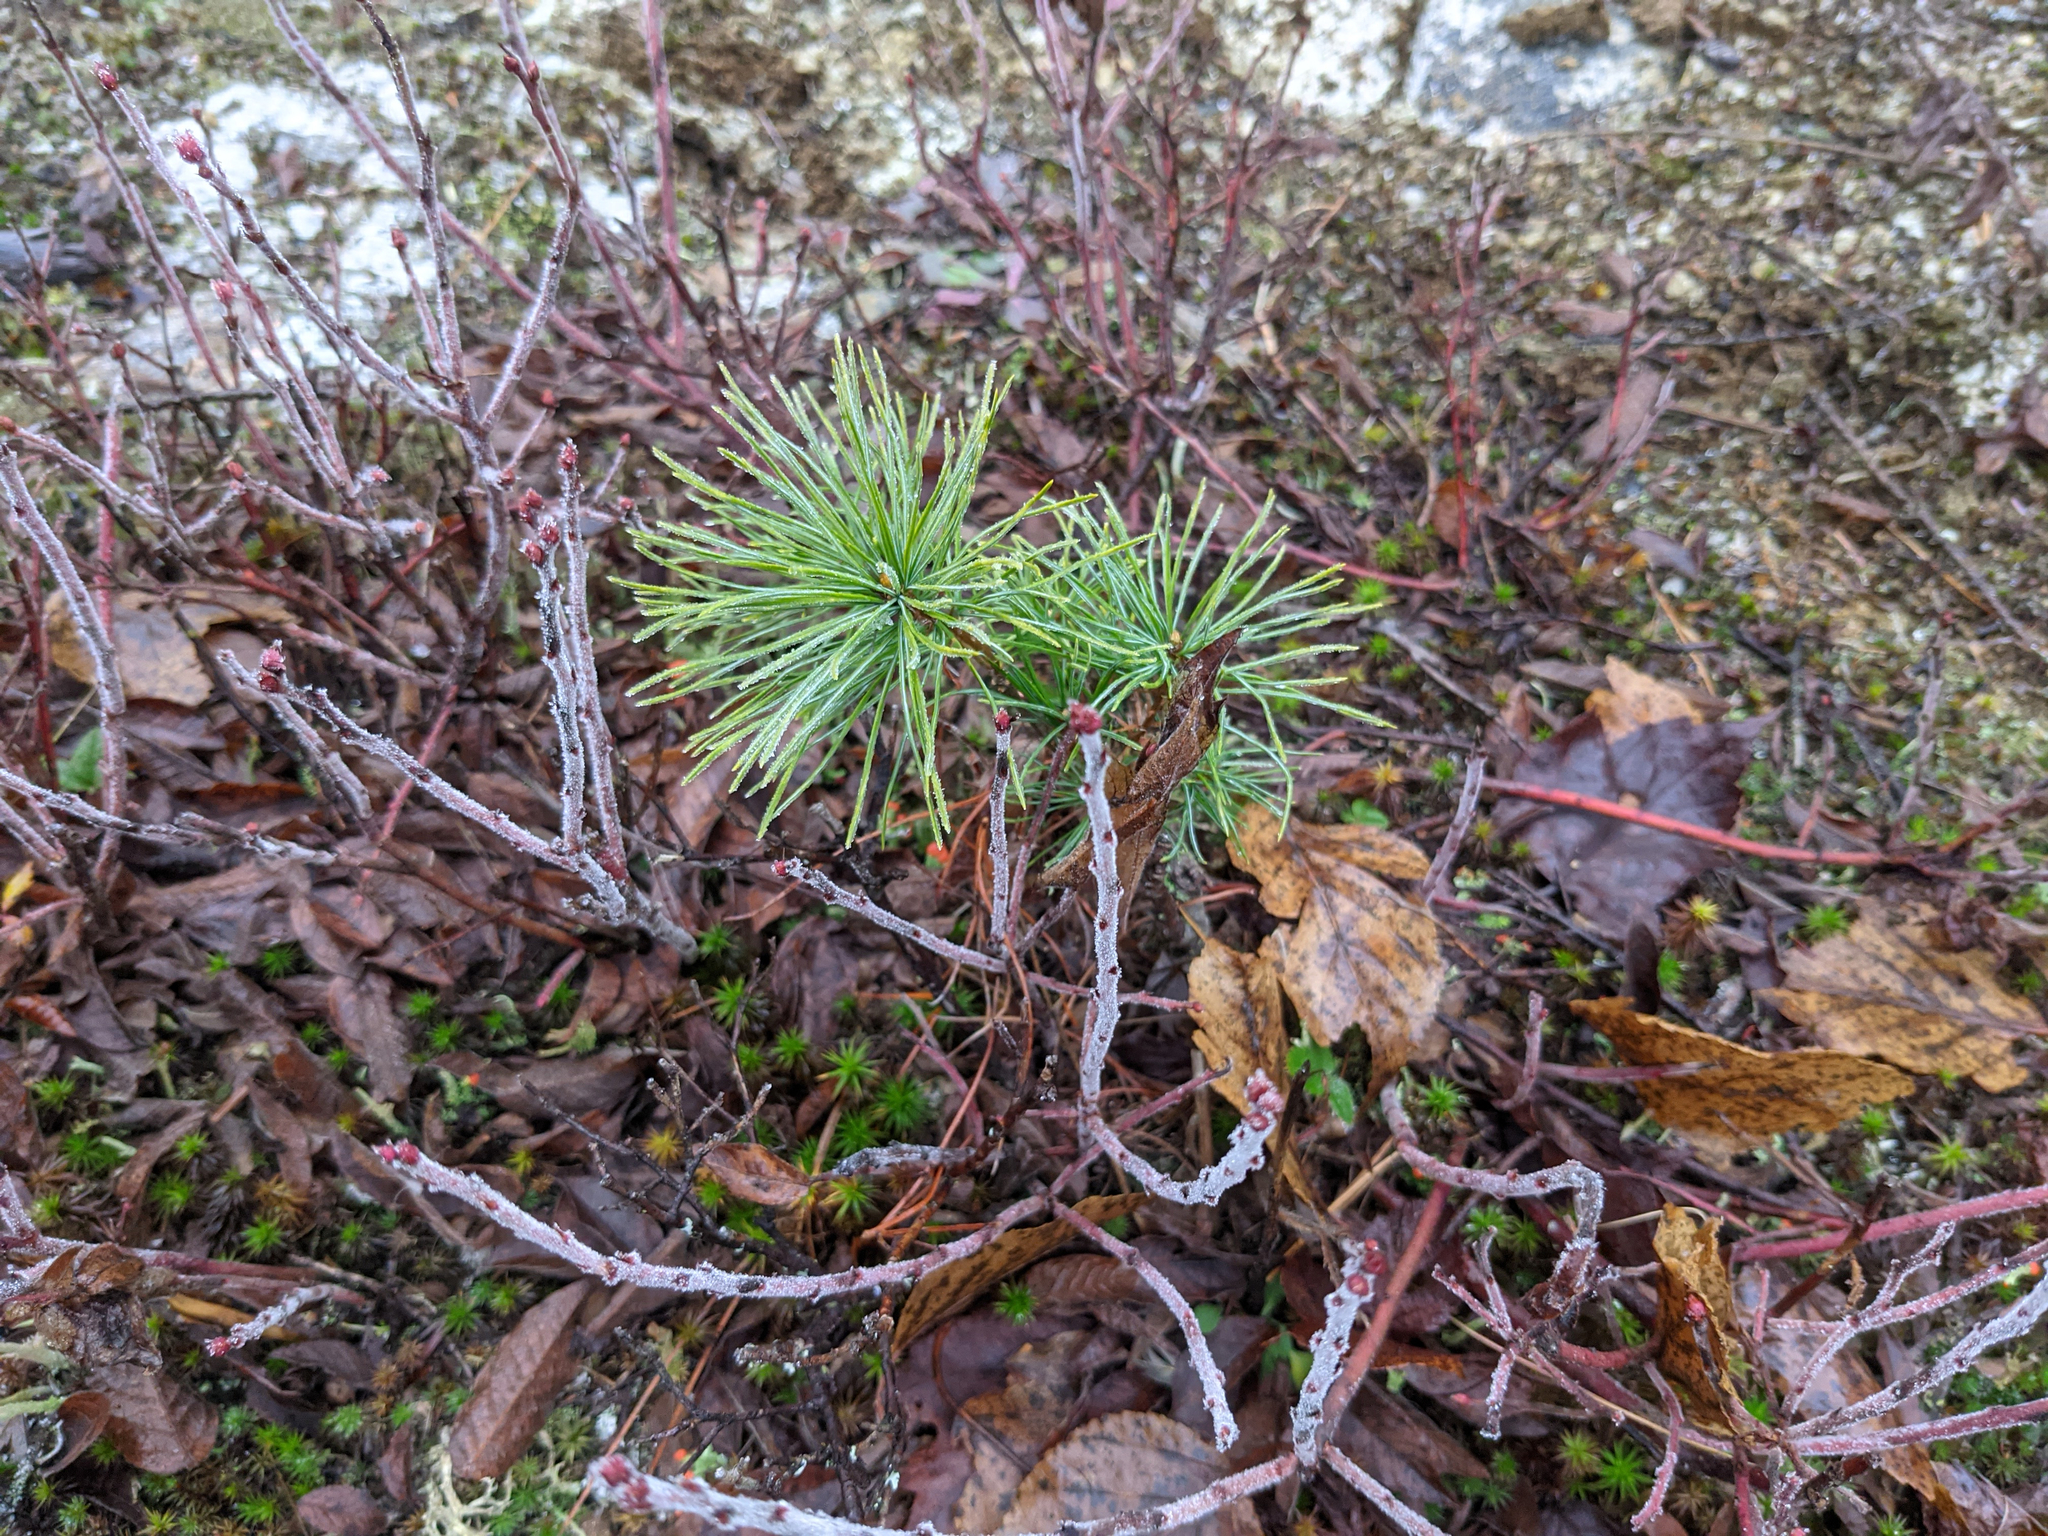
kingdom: Plantae
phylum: Tracheophyta
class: Pinopsida
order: Pinales
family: Pinaceae
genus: Pinus
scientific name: Pinus strobus
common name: Weymouth pine
